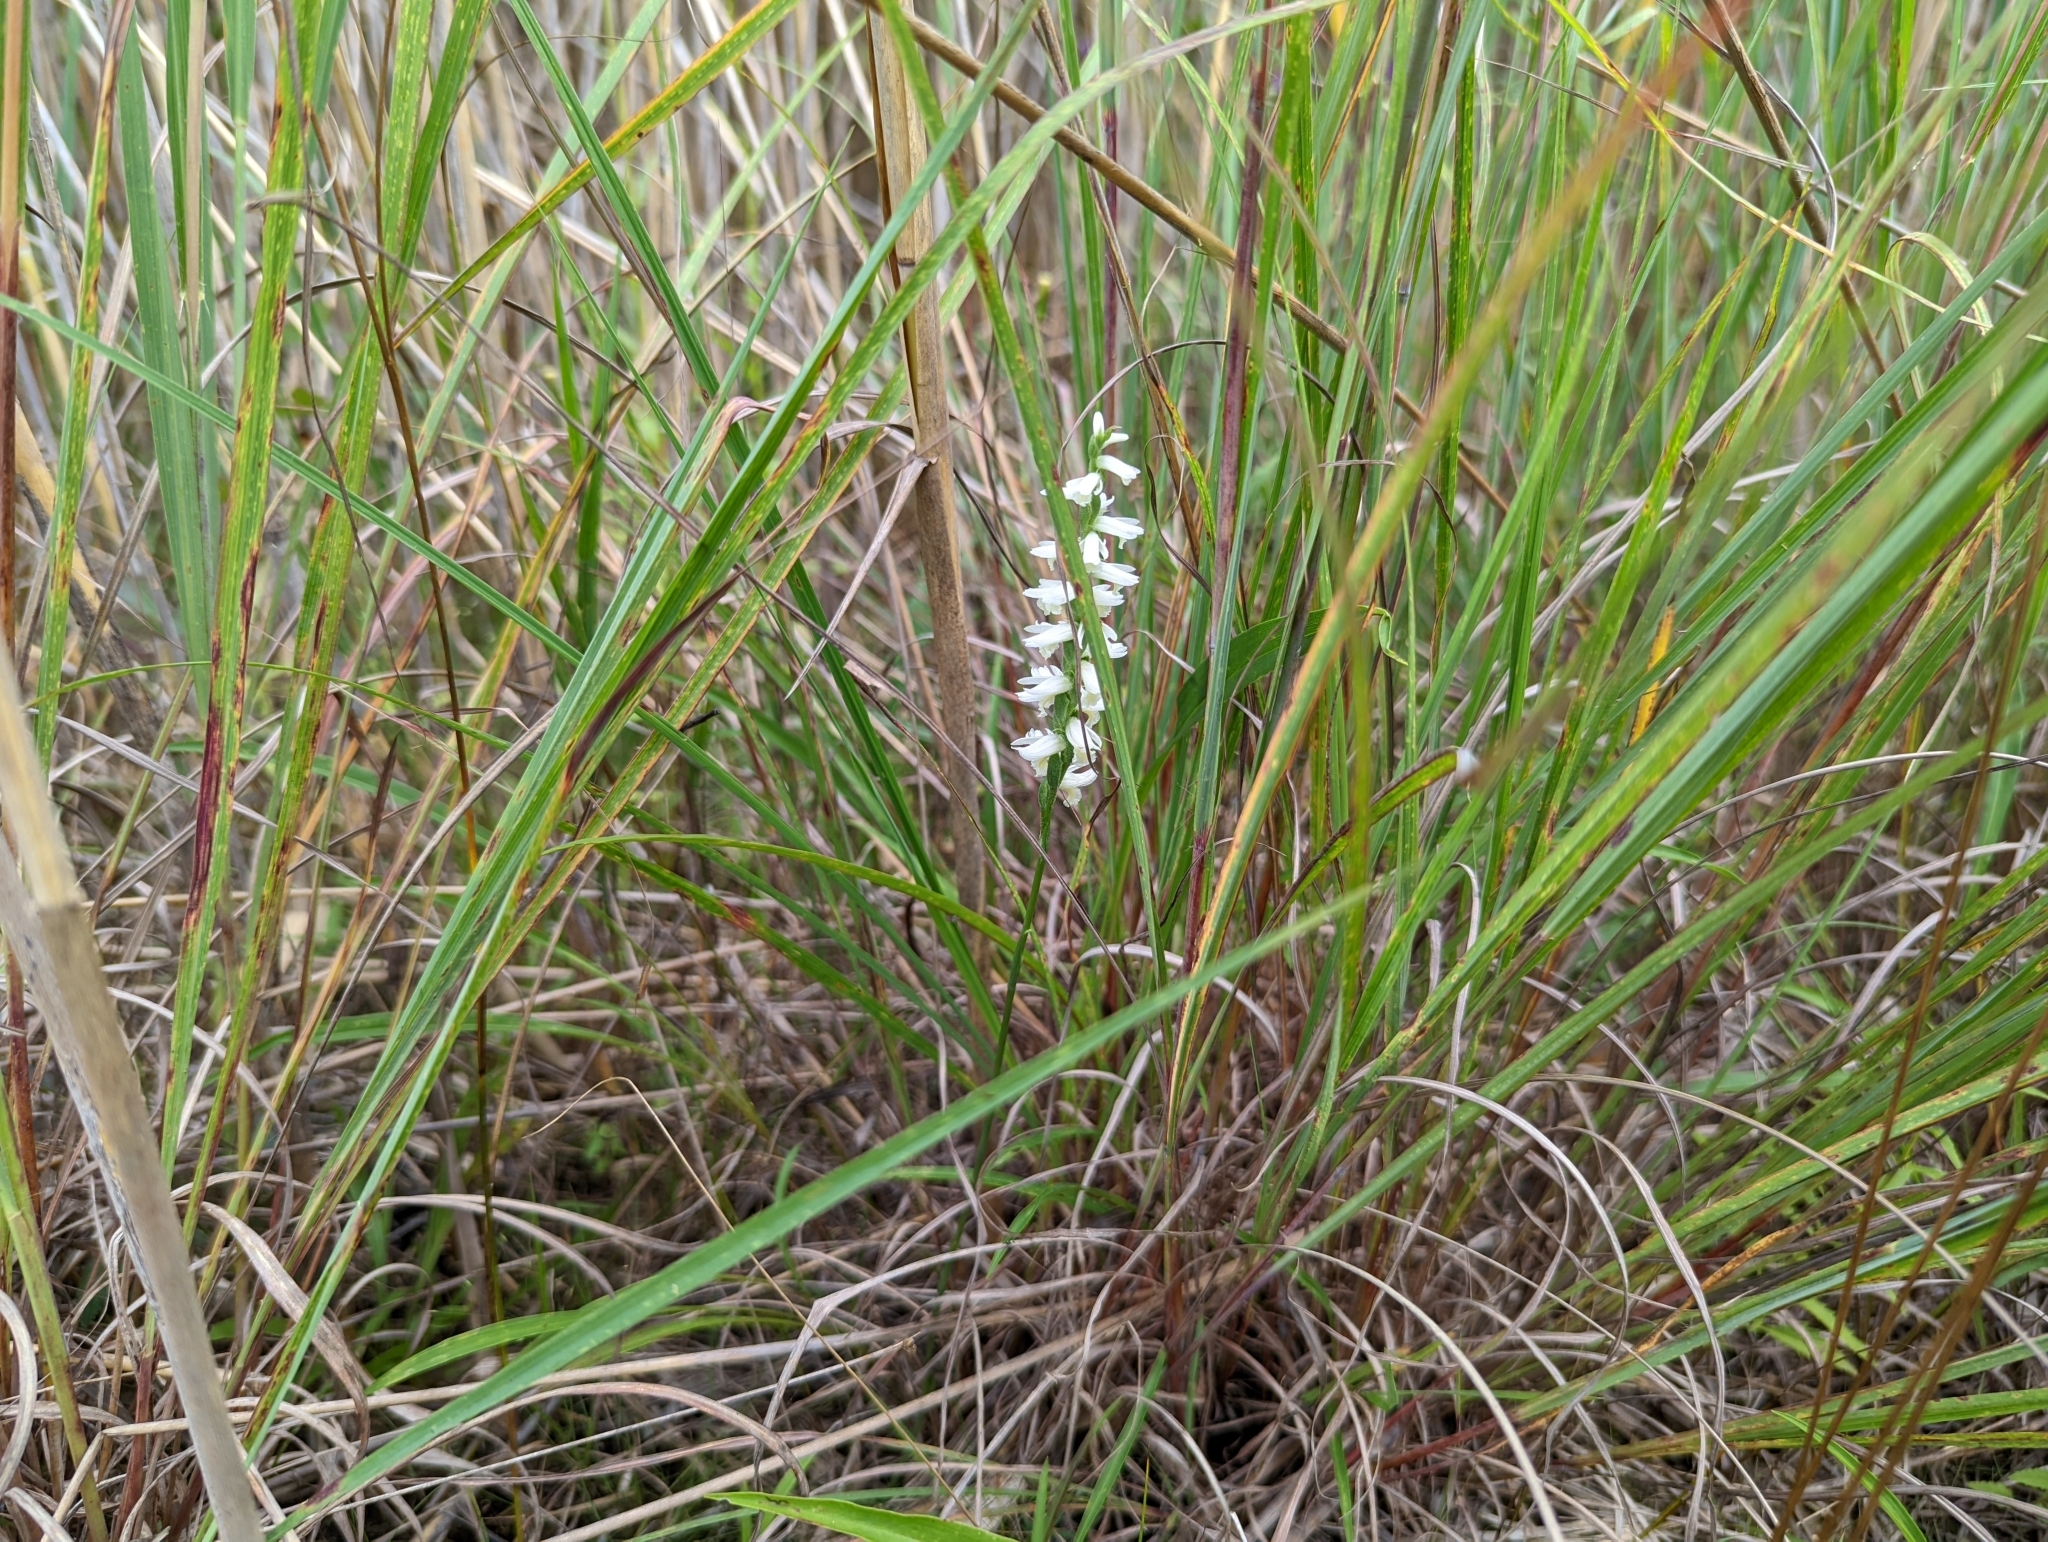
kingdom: Plantae
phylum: Tracheophyta
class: Liliopsida
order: Asparagales
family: Orchidaceae
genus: Spiranthes
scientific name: Spiranthes magnicamporum
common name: Great plains ladies'-tresses
